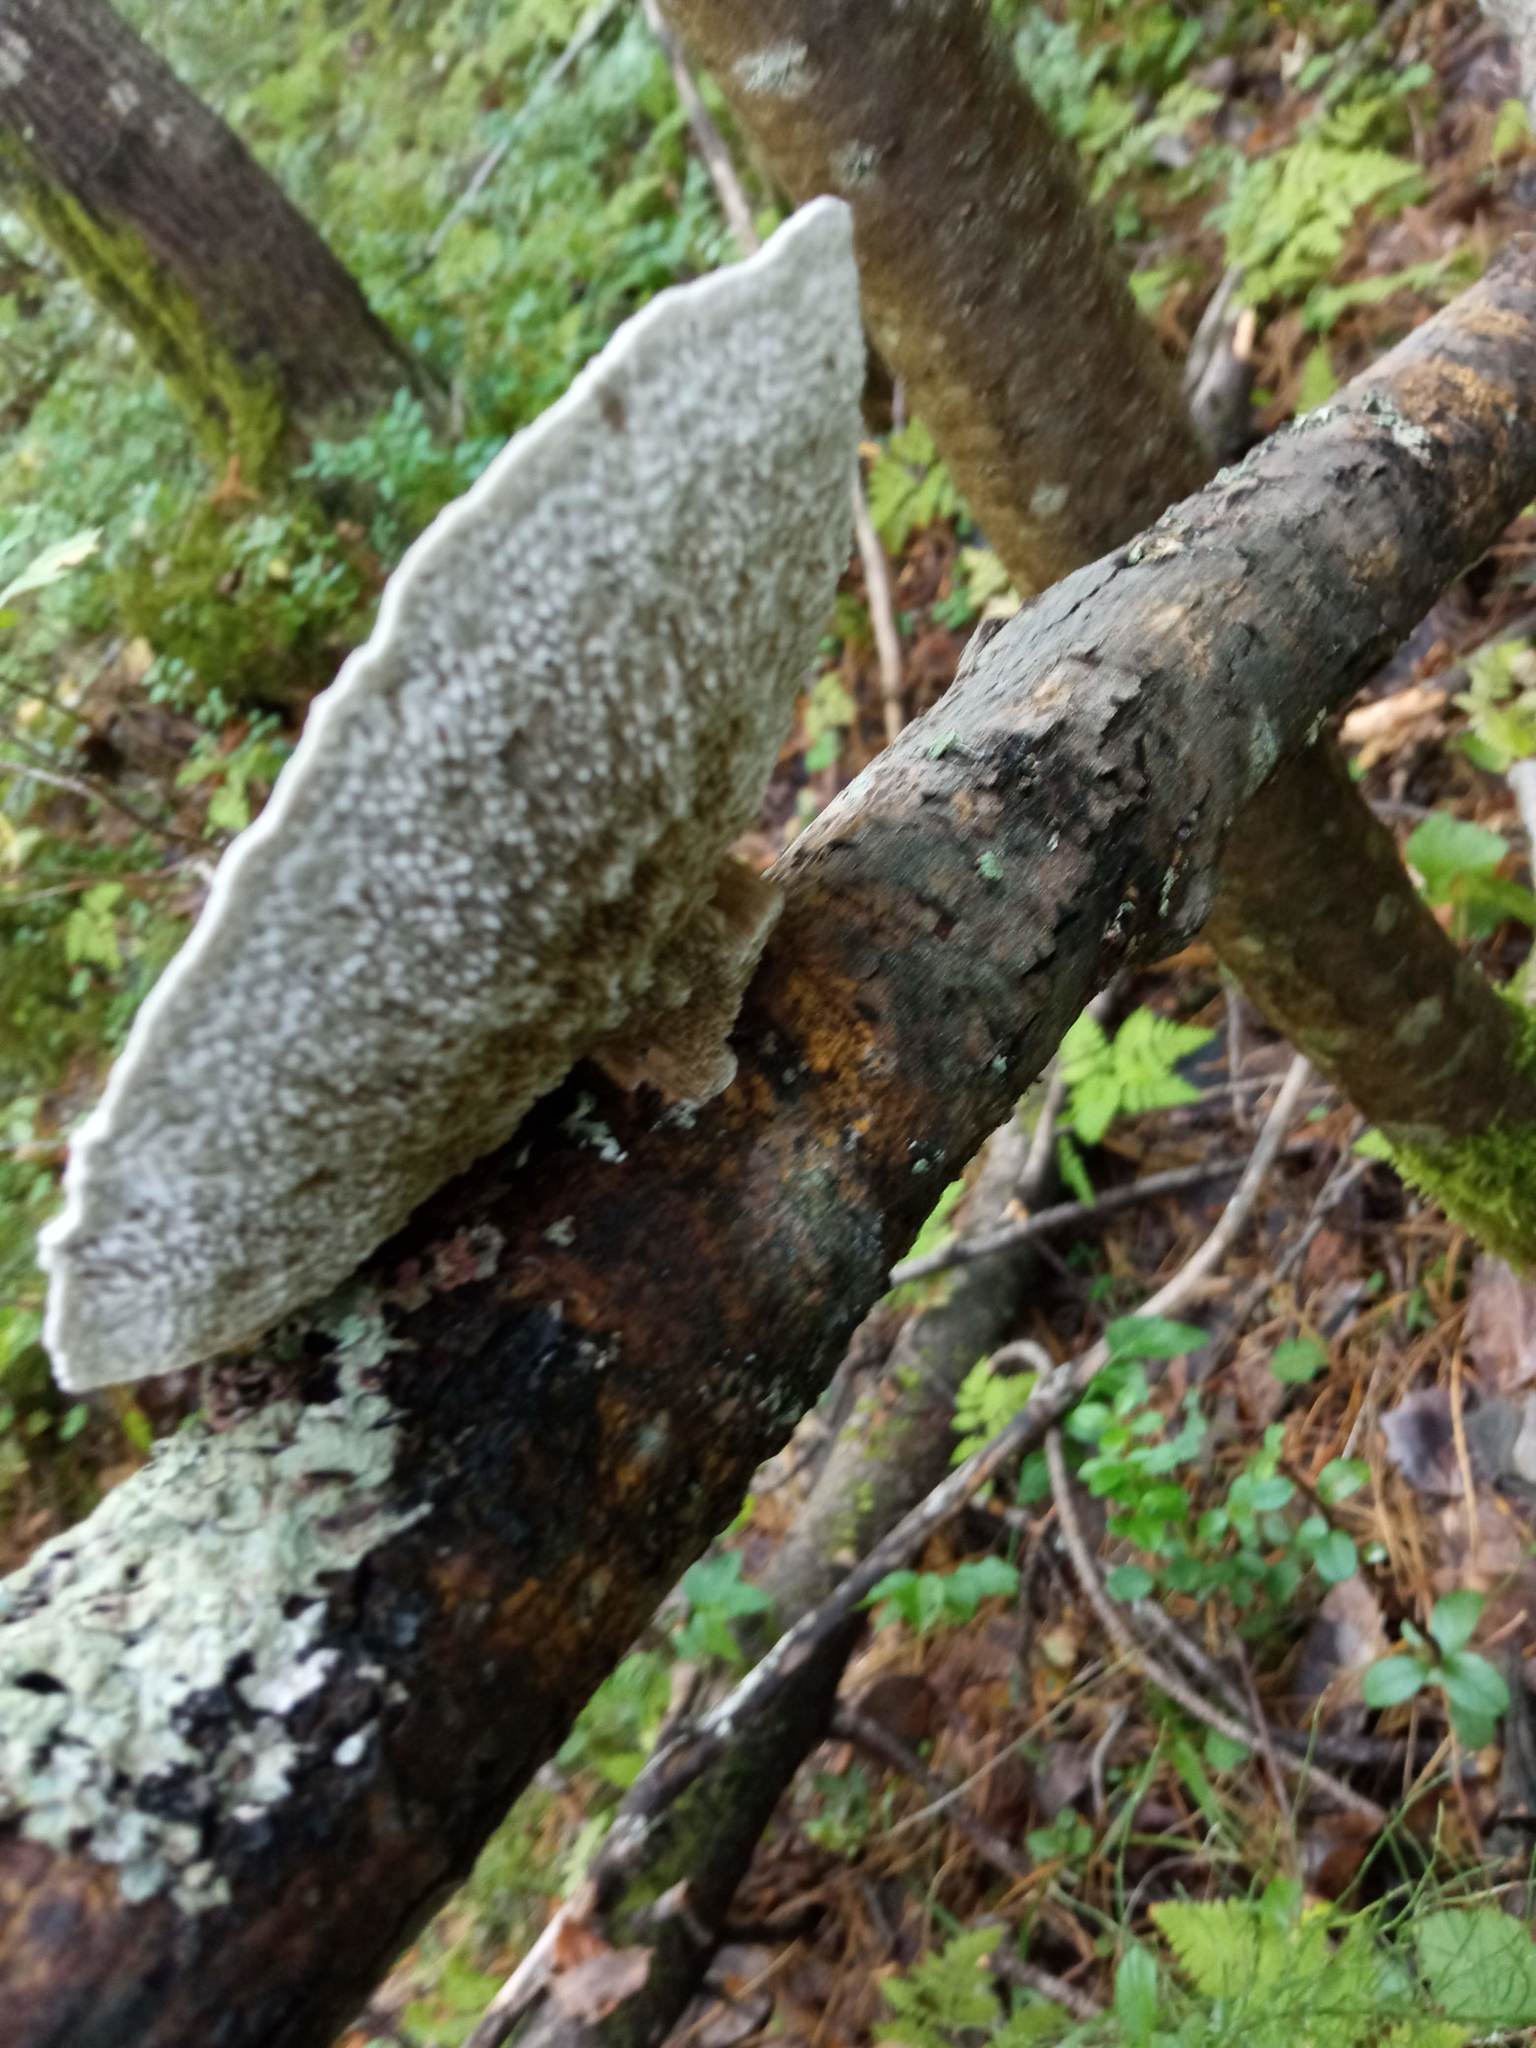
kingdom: Fungi
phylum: Basidiomycota
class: Agaricomycetes
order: Polyporales
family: Polyporaceae
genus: Daedaleopsis
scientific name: Daedaleopsis confragosa
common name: Blushing bracket
